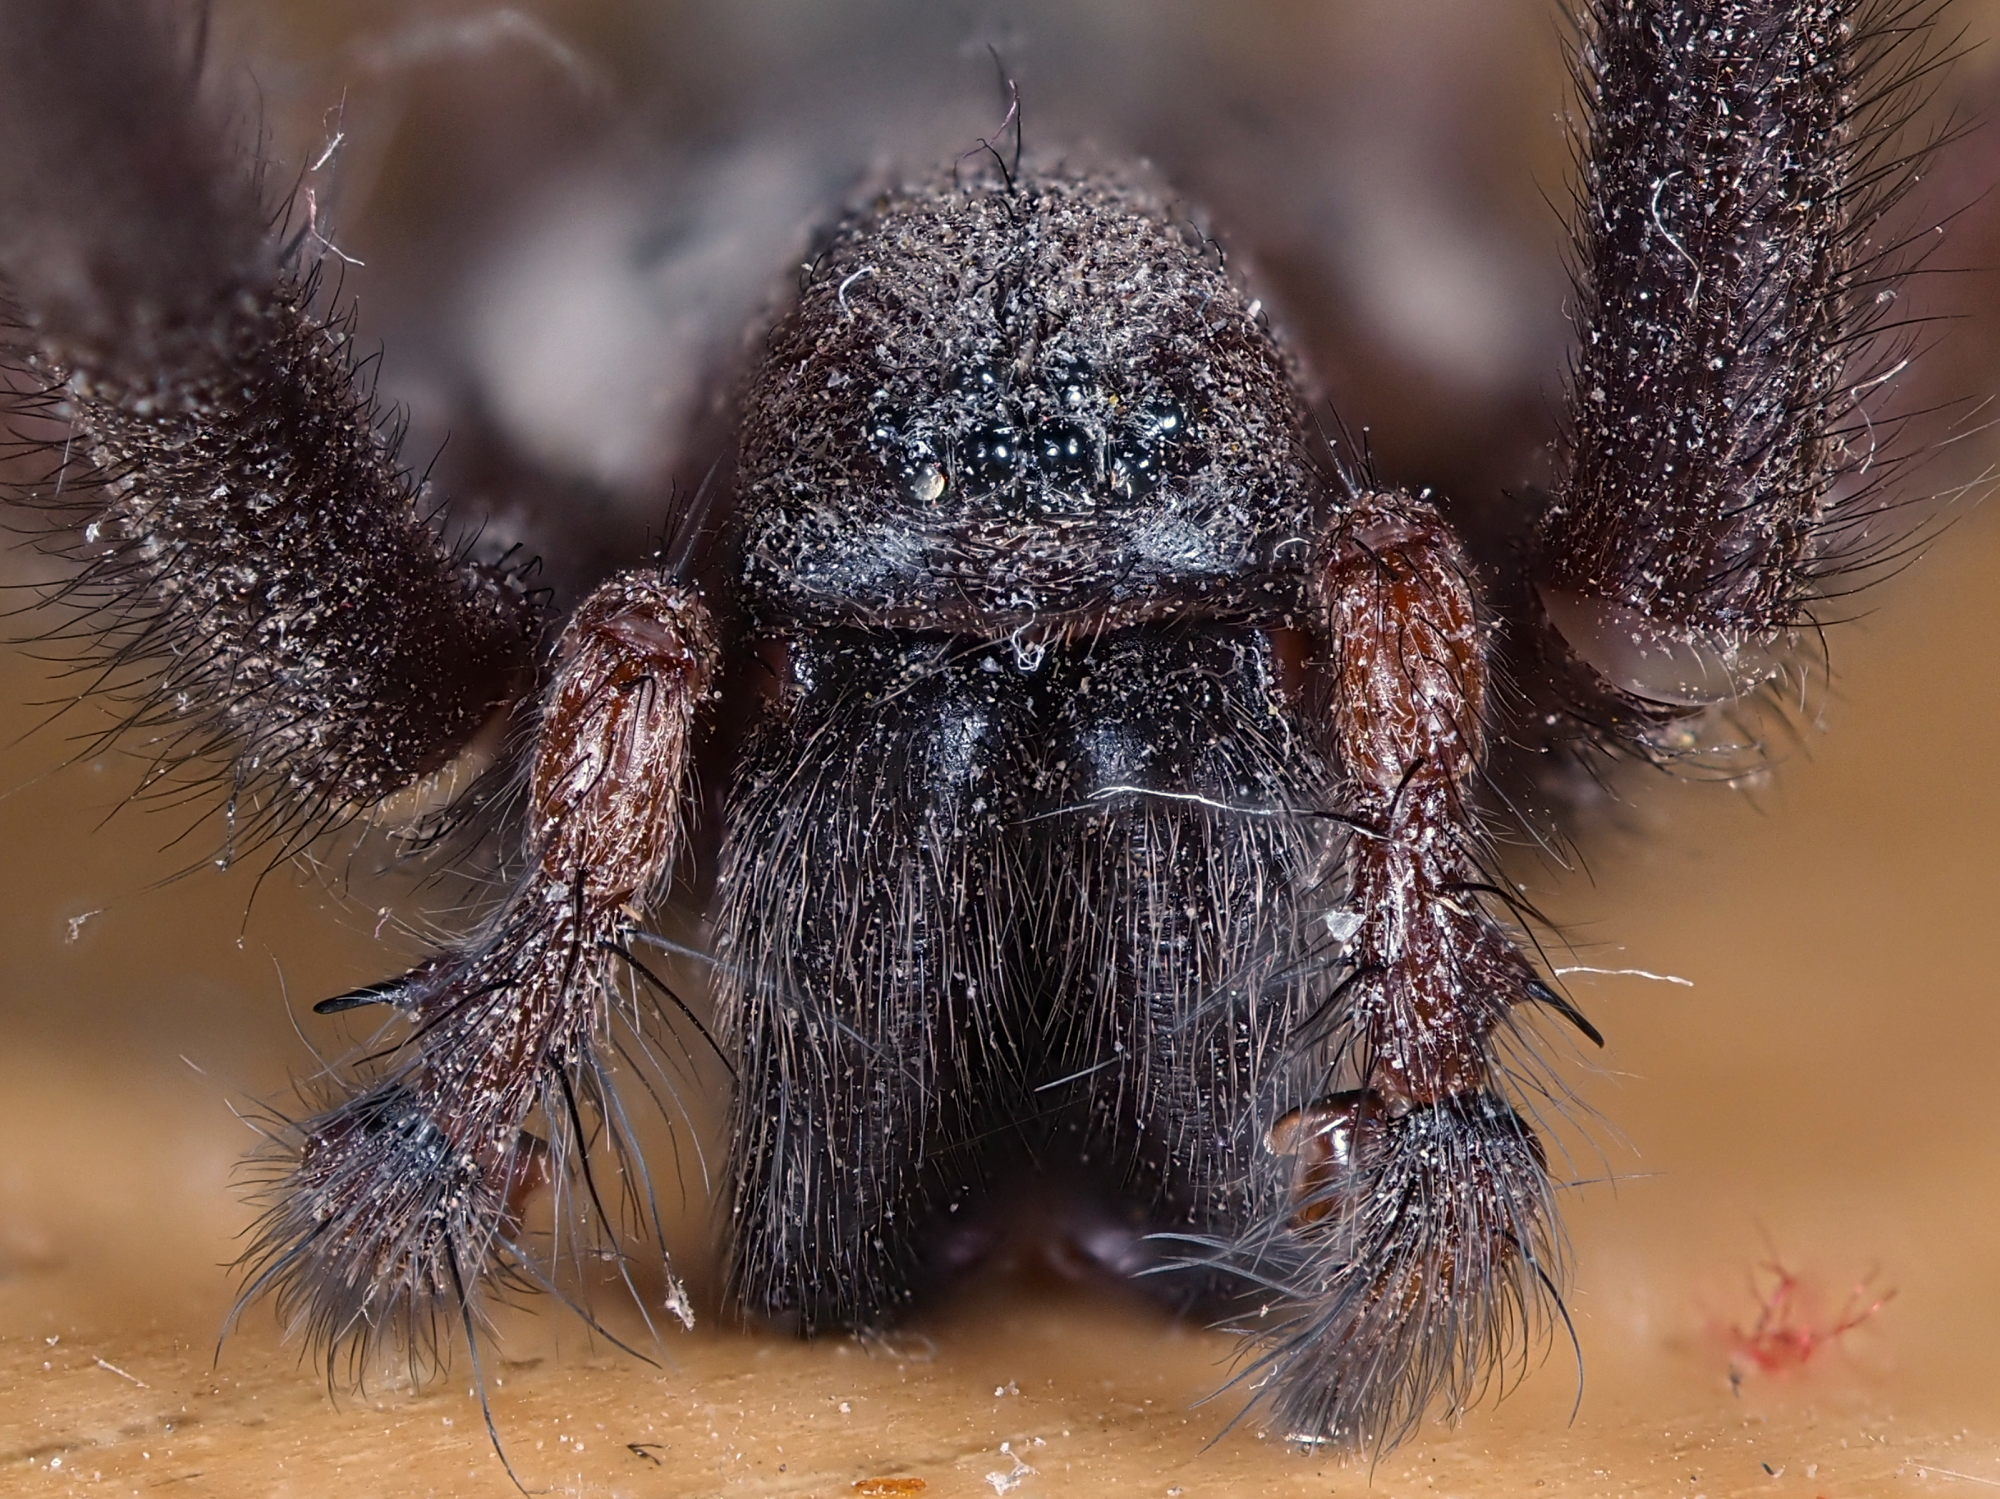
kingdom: Animalia
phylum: Arthropoda
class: Arachnida
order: Araneae
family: Agelenidae
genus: Tegenaria
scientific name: Tegenaria parietina
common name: Cardinal spider
